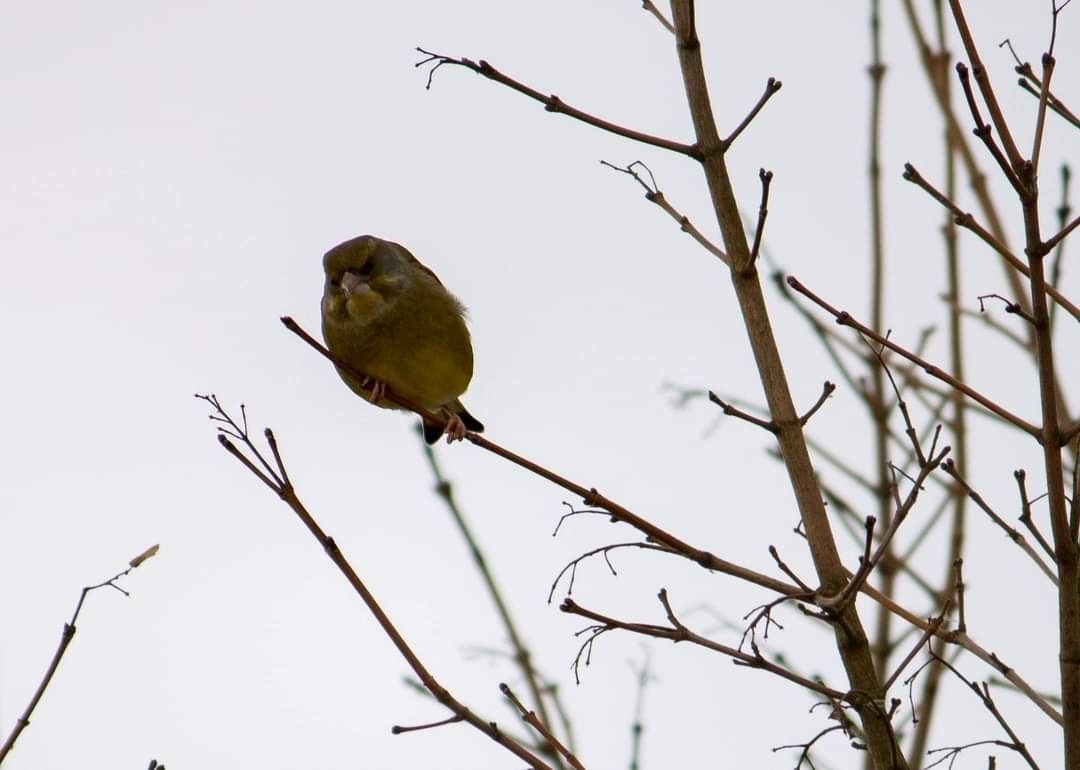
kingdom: Plantae
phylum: Tracheophyta
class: Liliopsida
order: Poales
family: Poaceae
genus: Chloris
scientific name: Chloris chloris
